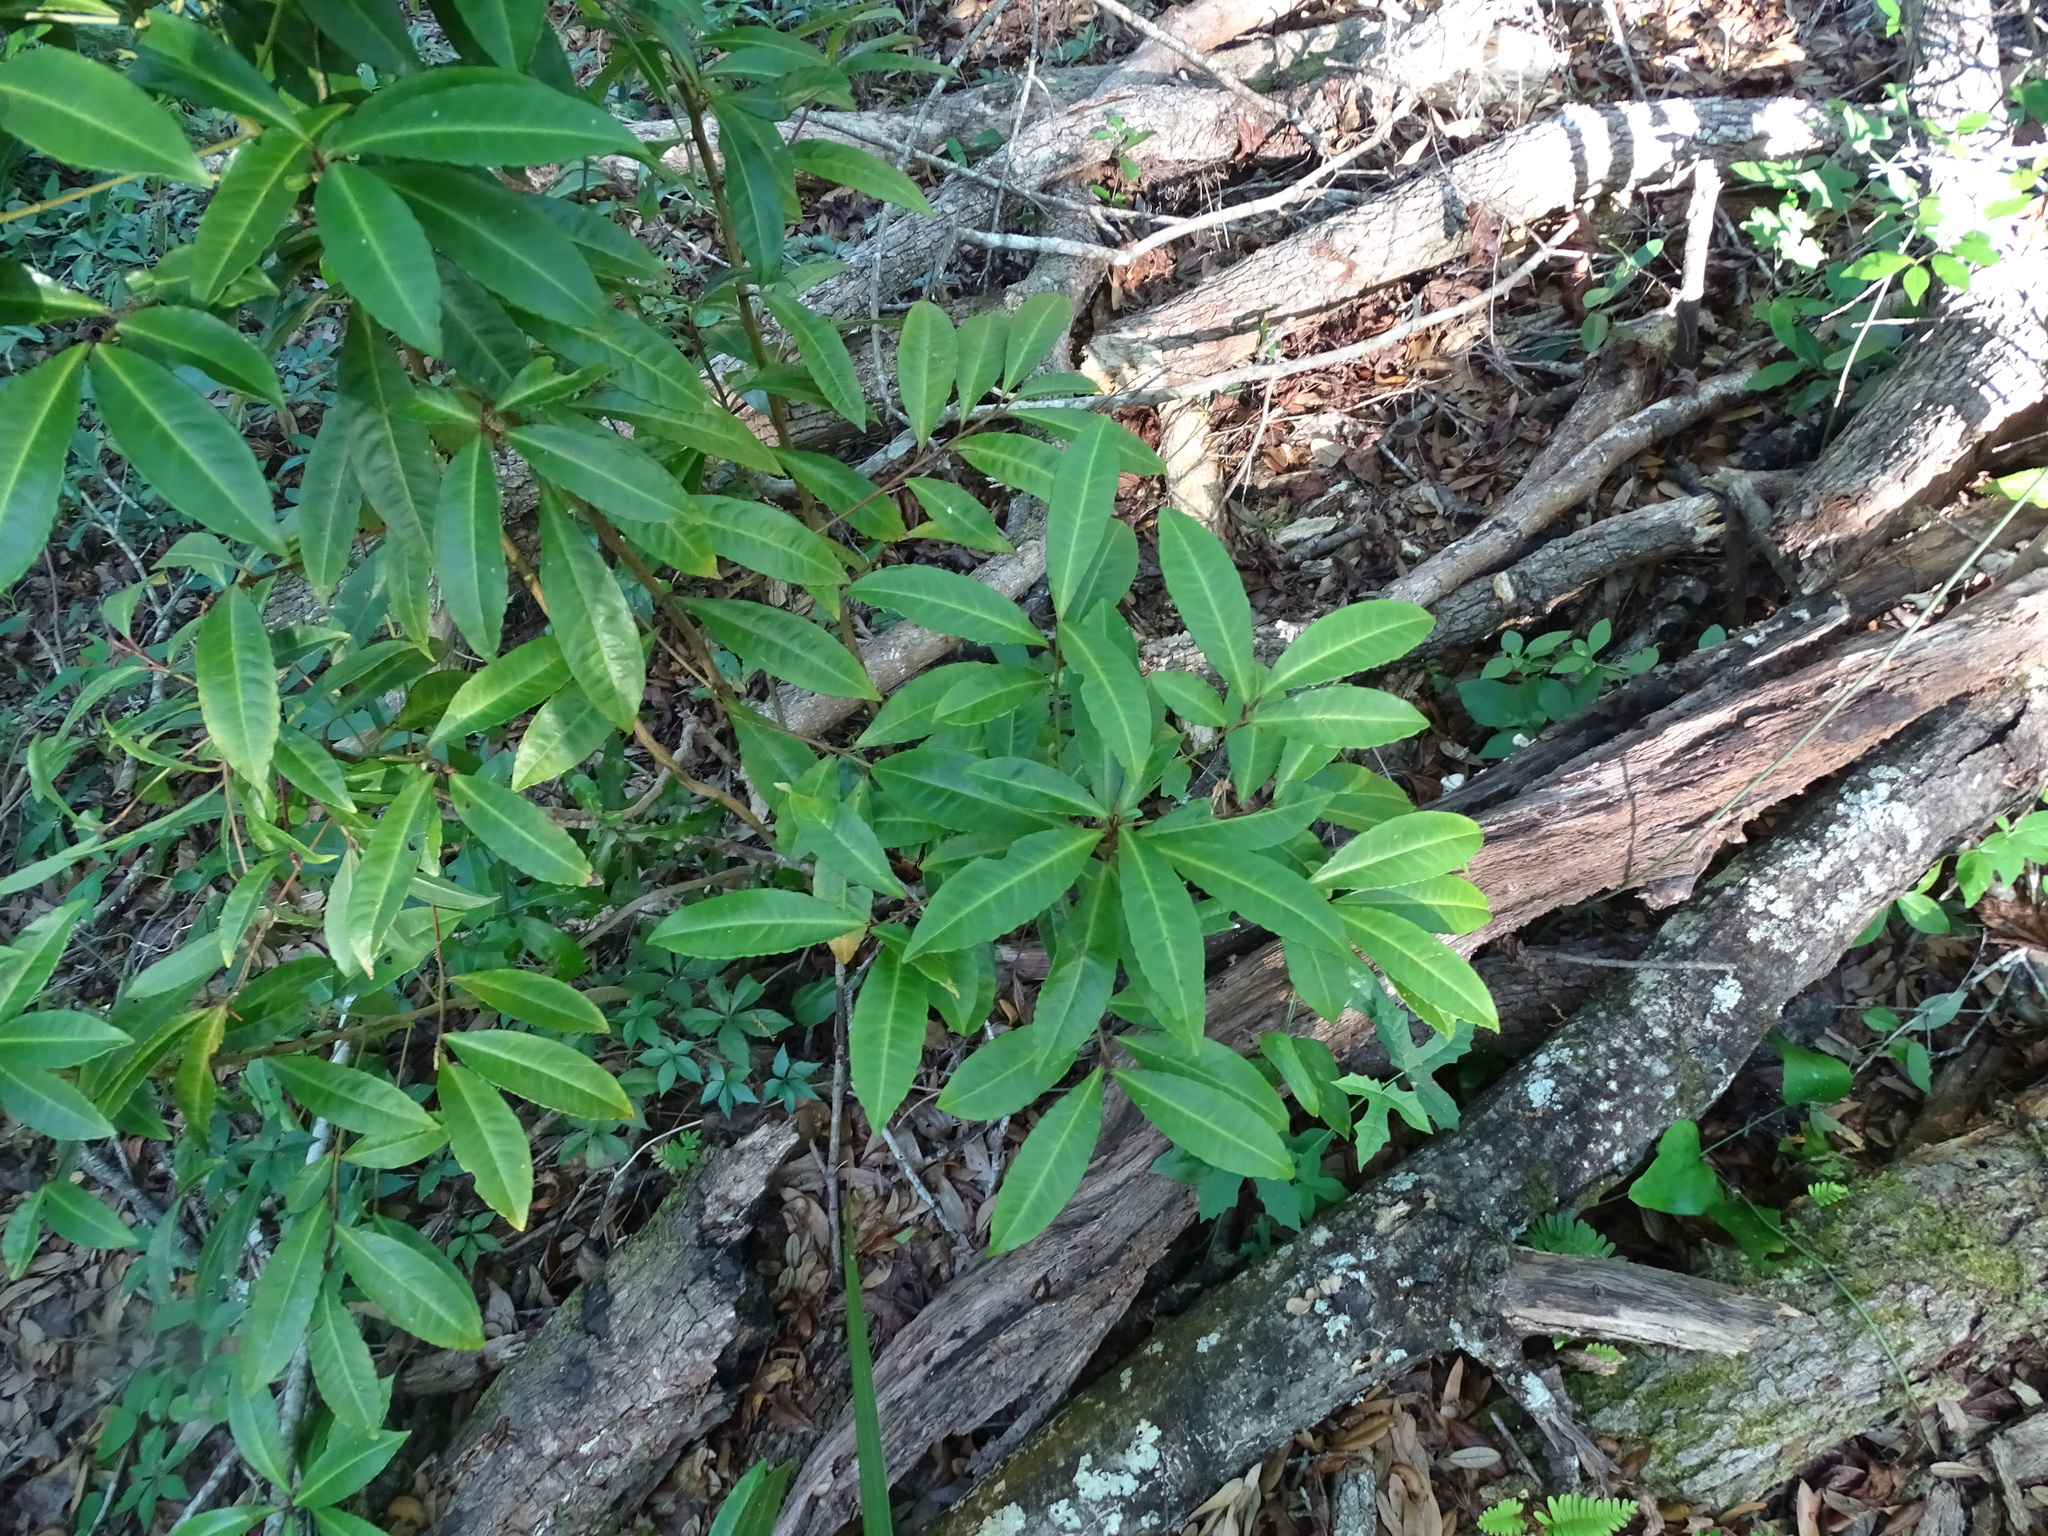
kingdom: Plantae
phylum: Tracheophyta
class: Magnoliopsida
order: Ericales
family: Primulaceae
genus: Ardisia
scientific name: Ardisia crenata
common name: Hen's eyes
